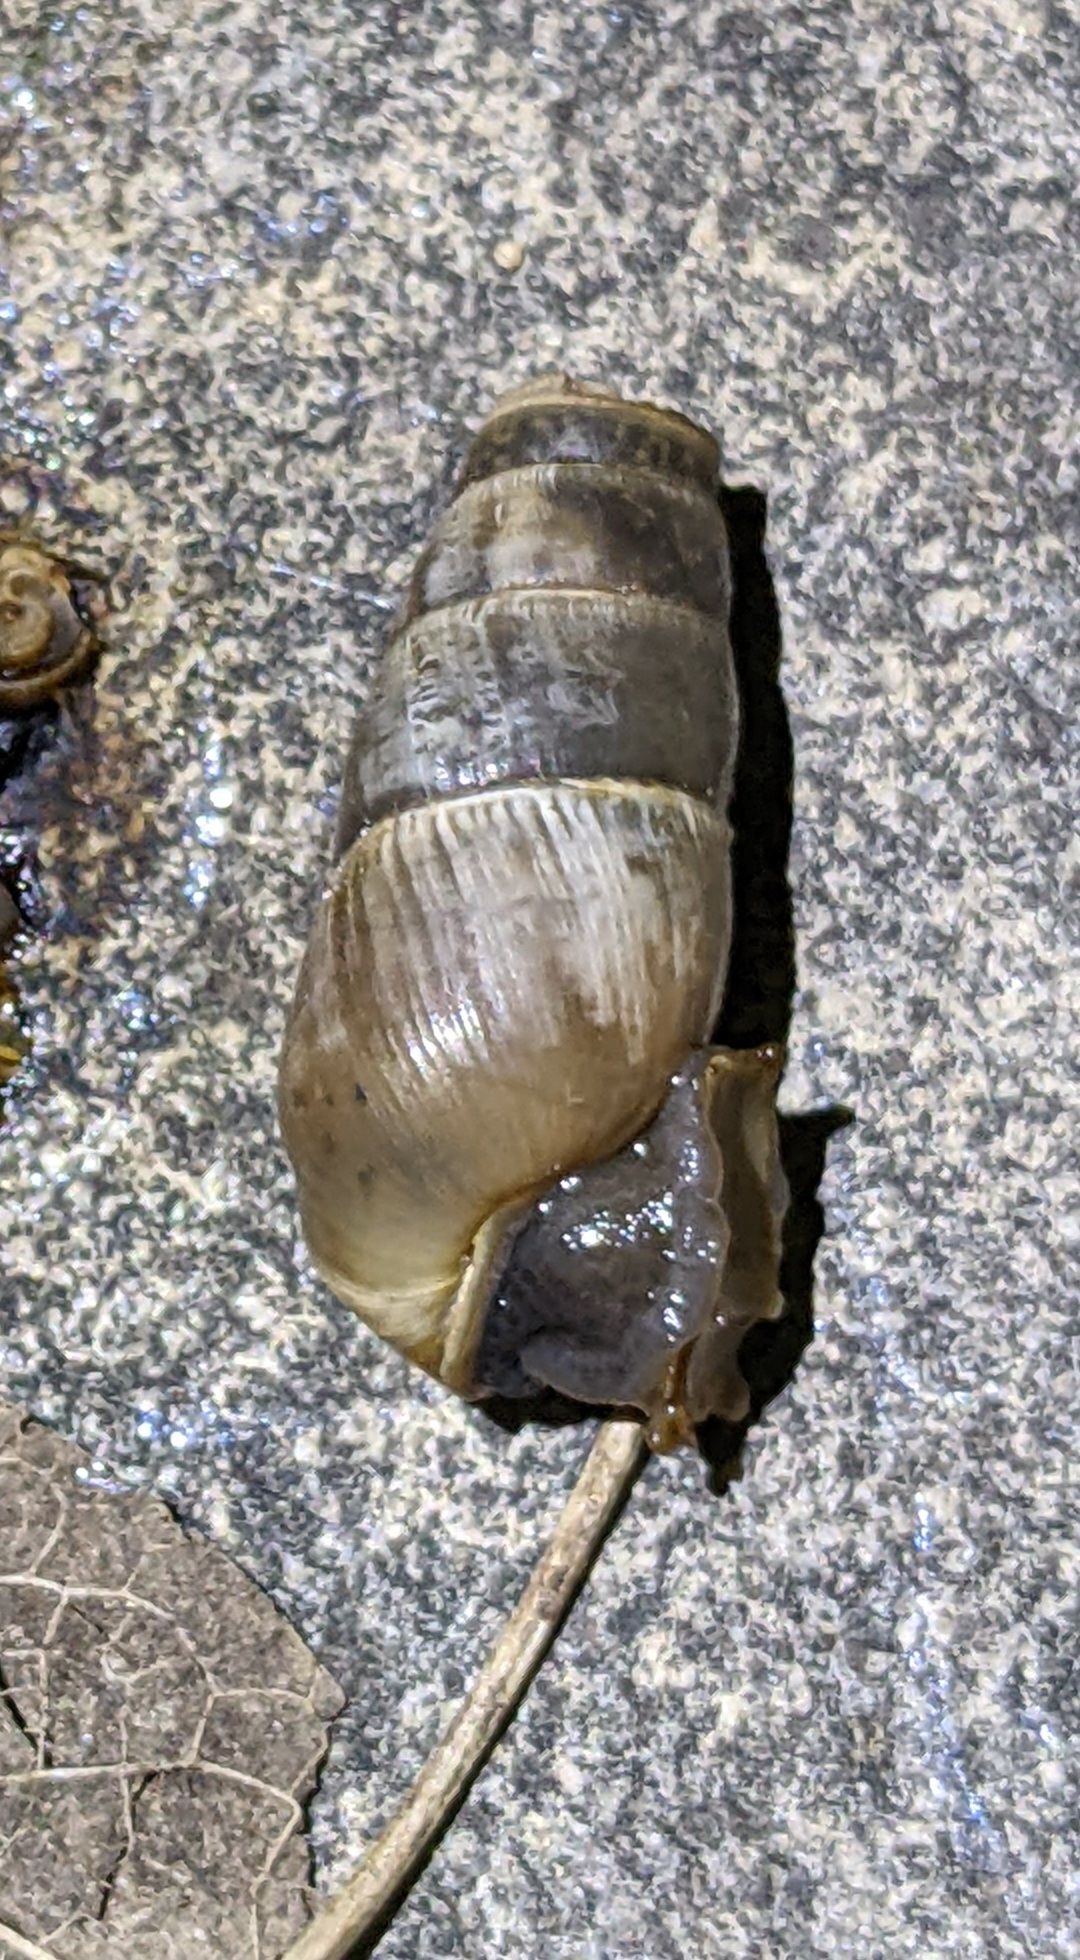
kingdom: Animalia
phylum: Mollusca
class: Gastropoda
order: Stylommatophora
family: Achatinidae
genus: Rumina
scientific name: Rumina decollata
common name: Decollate snail
